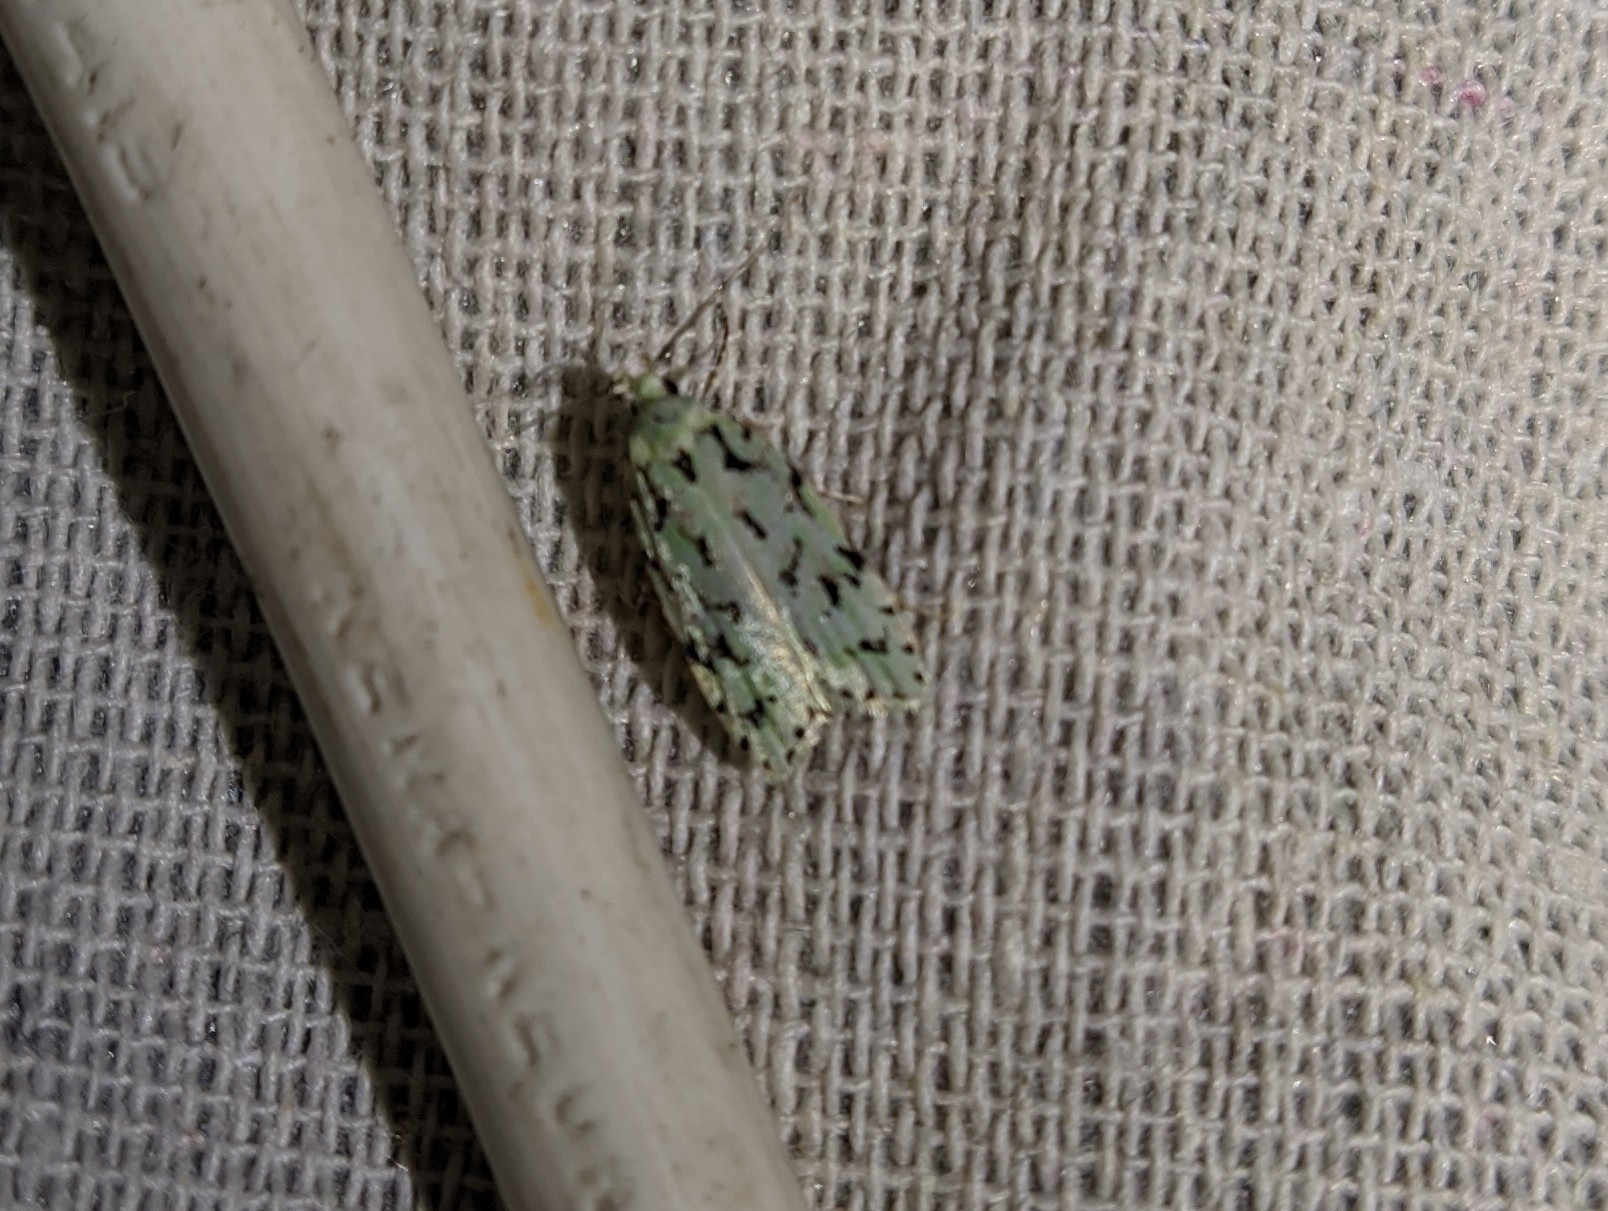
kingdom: Animalia
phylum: Arthropoda
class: Insecta
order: Lepidoptera
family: Oecophoridae
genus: Izatha
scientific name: Izatha peroneanella
